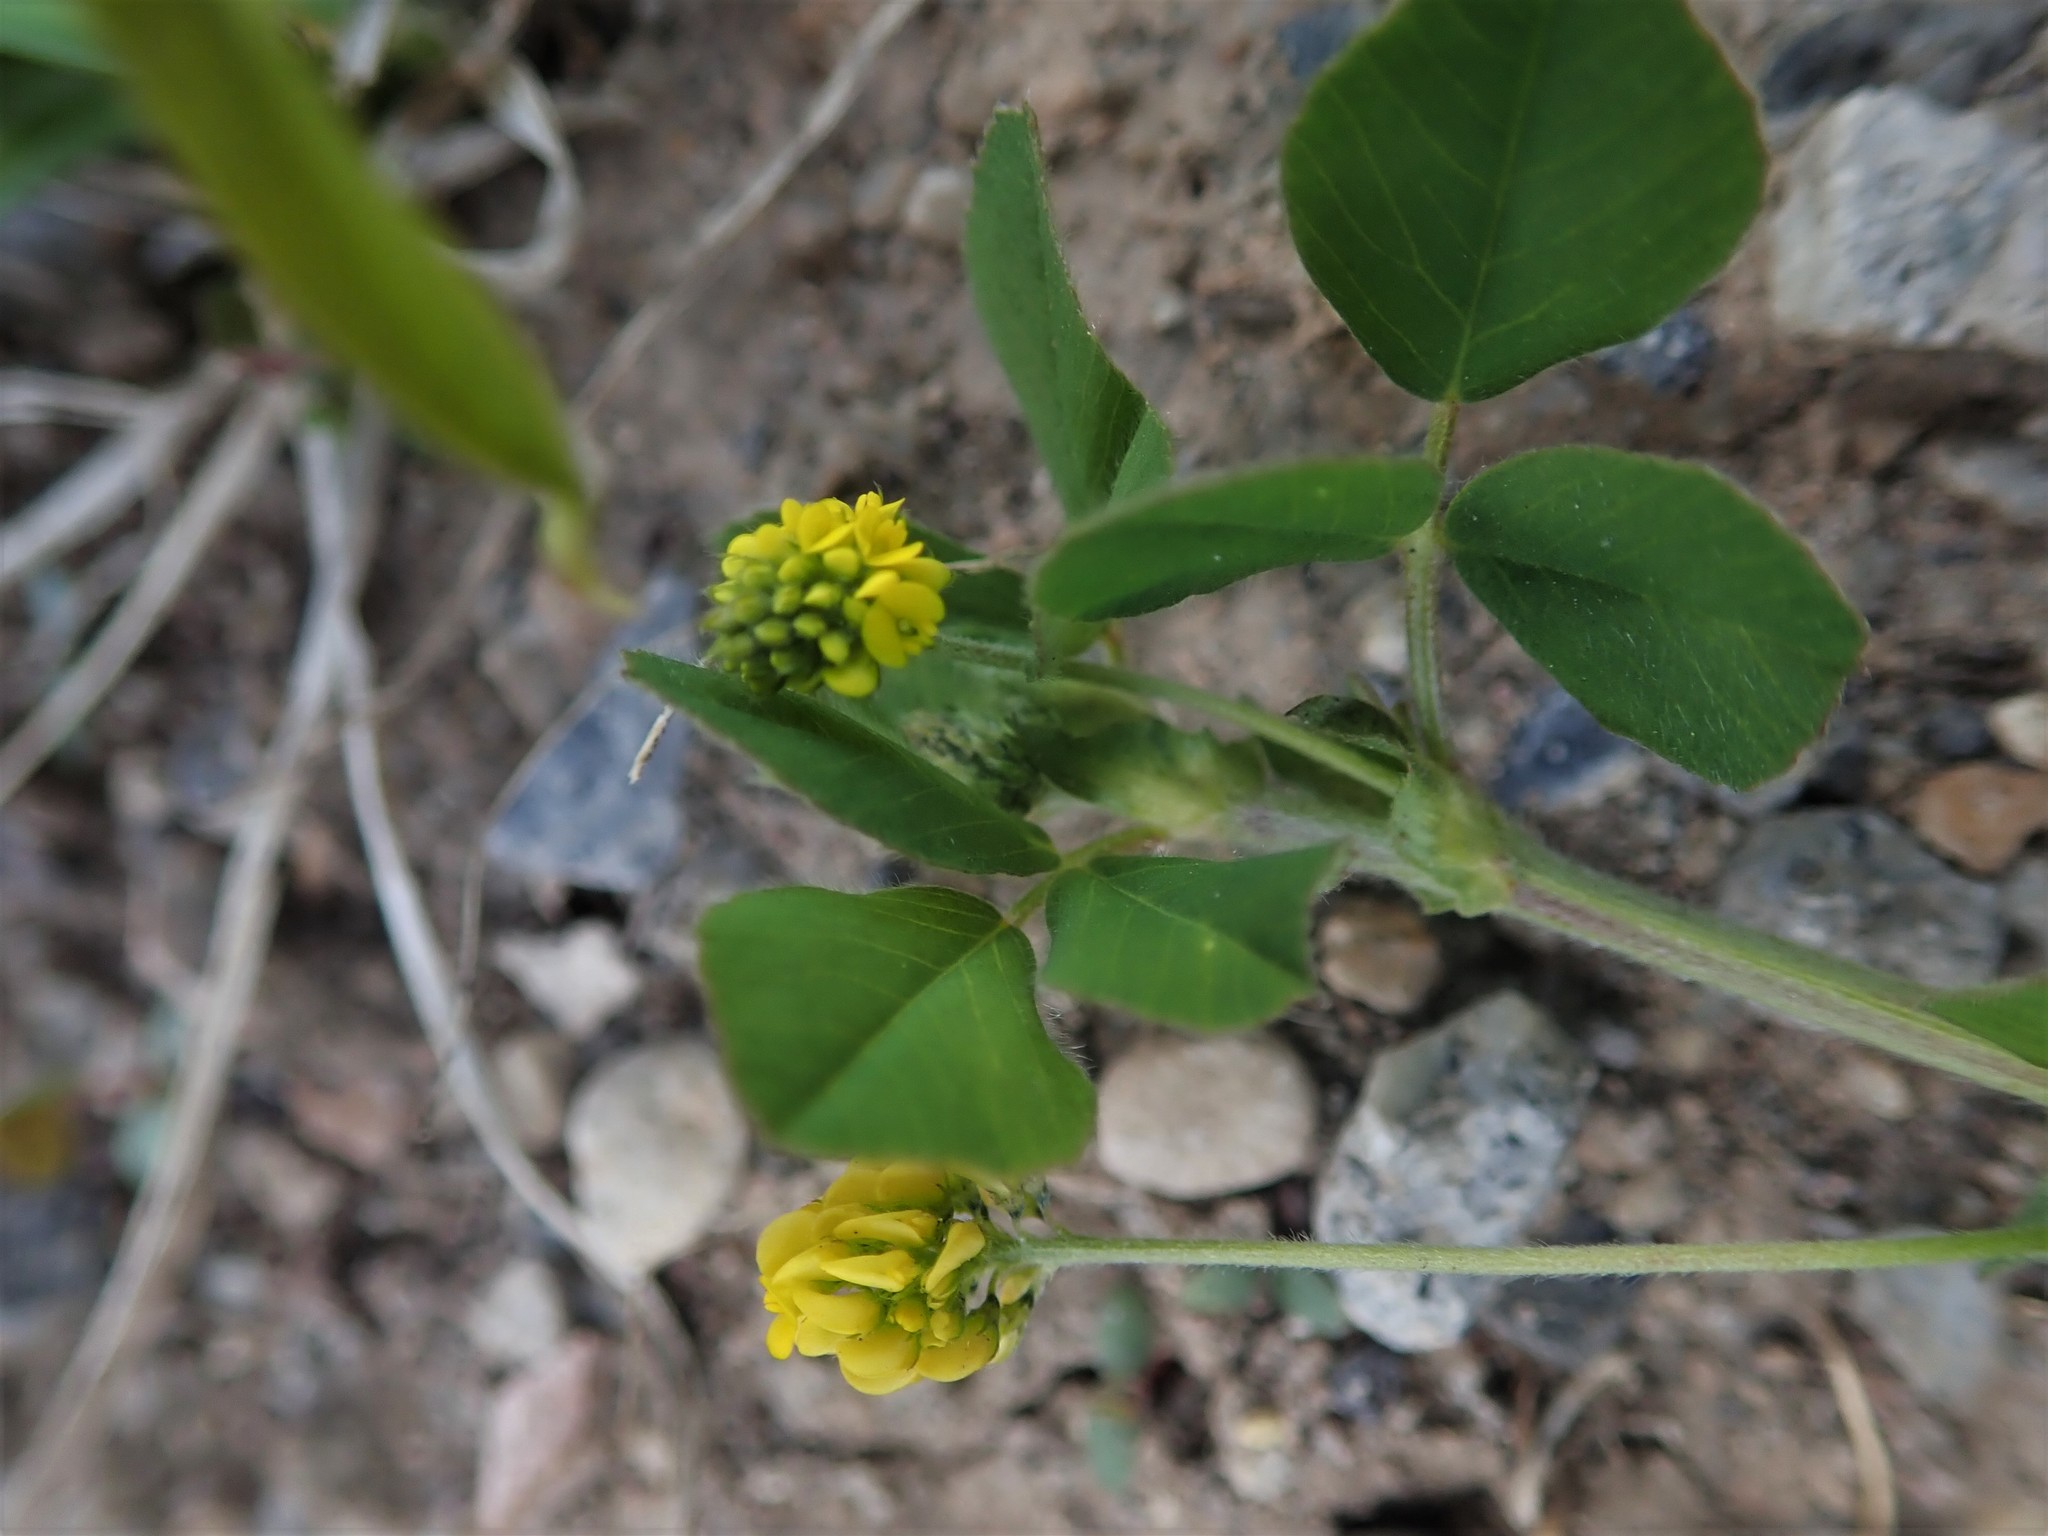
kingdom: Plantae
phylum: Tracheophyta
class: Magnoliopsida
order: Fabales
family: Fabaceae
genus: Medicago
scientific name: Medicago lupulina
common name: Black medick
